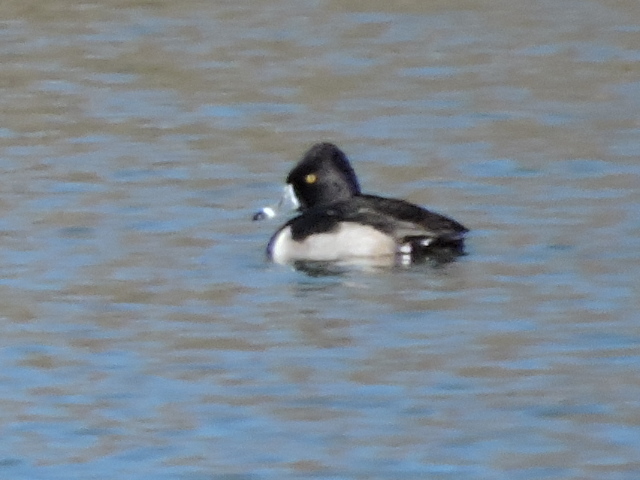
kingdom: Animalia
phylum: Chordata
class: Aves
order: Anseriformes
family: Anatidae
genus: Aythya
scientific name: Aythya collaris
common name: Ring-necked duck
